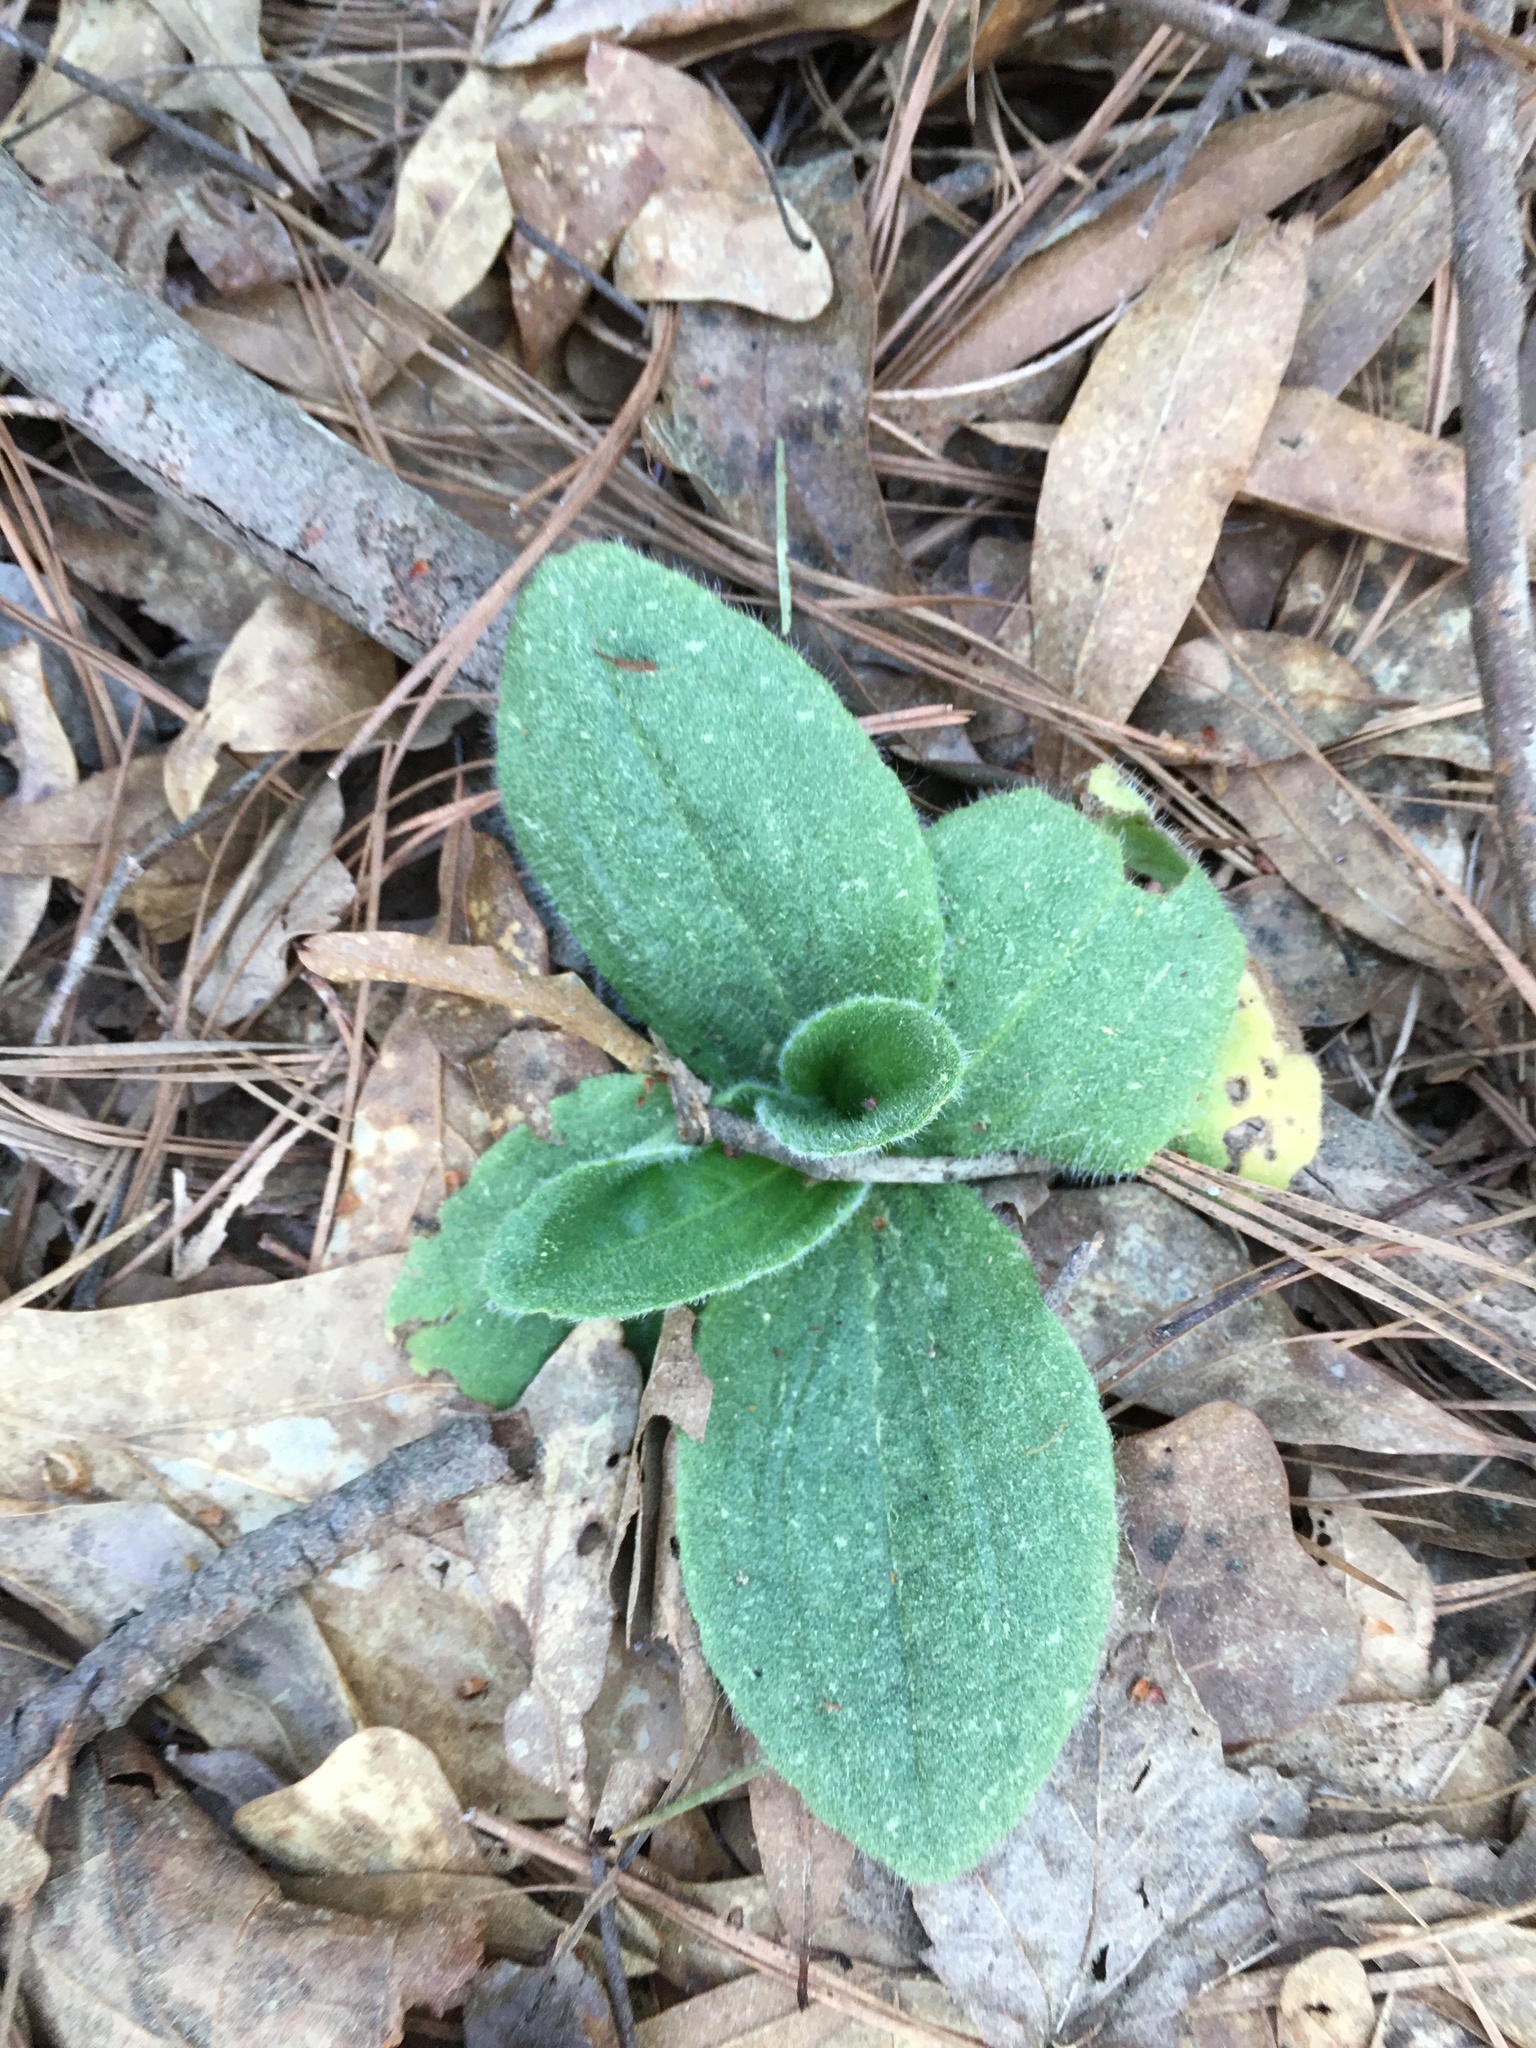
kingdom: Plantae
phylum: Tracheophyta
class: Magnoliopsida
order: Asterales
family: Asteraceae
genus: Arnica
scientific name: Arnica acaulis
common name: Common leopardbane
